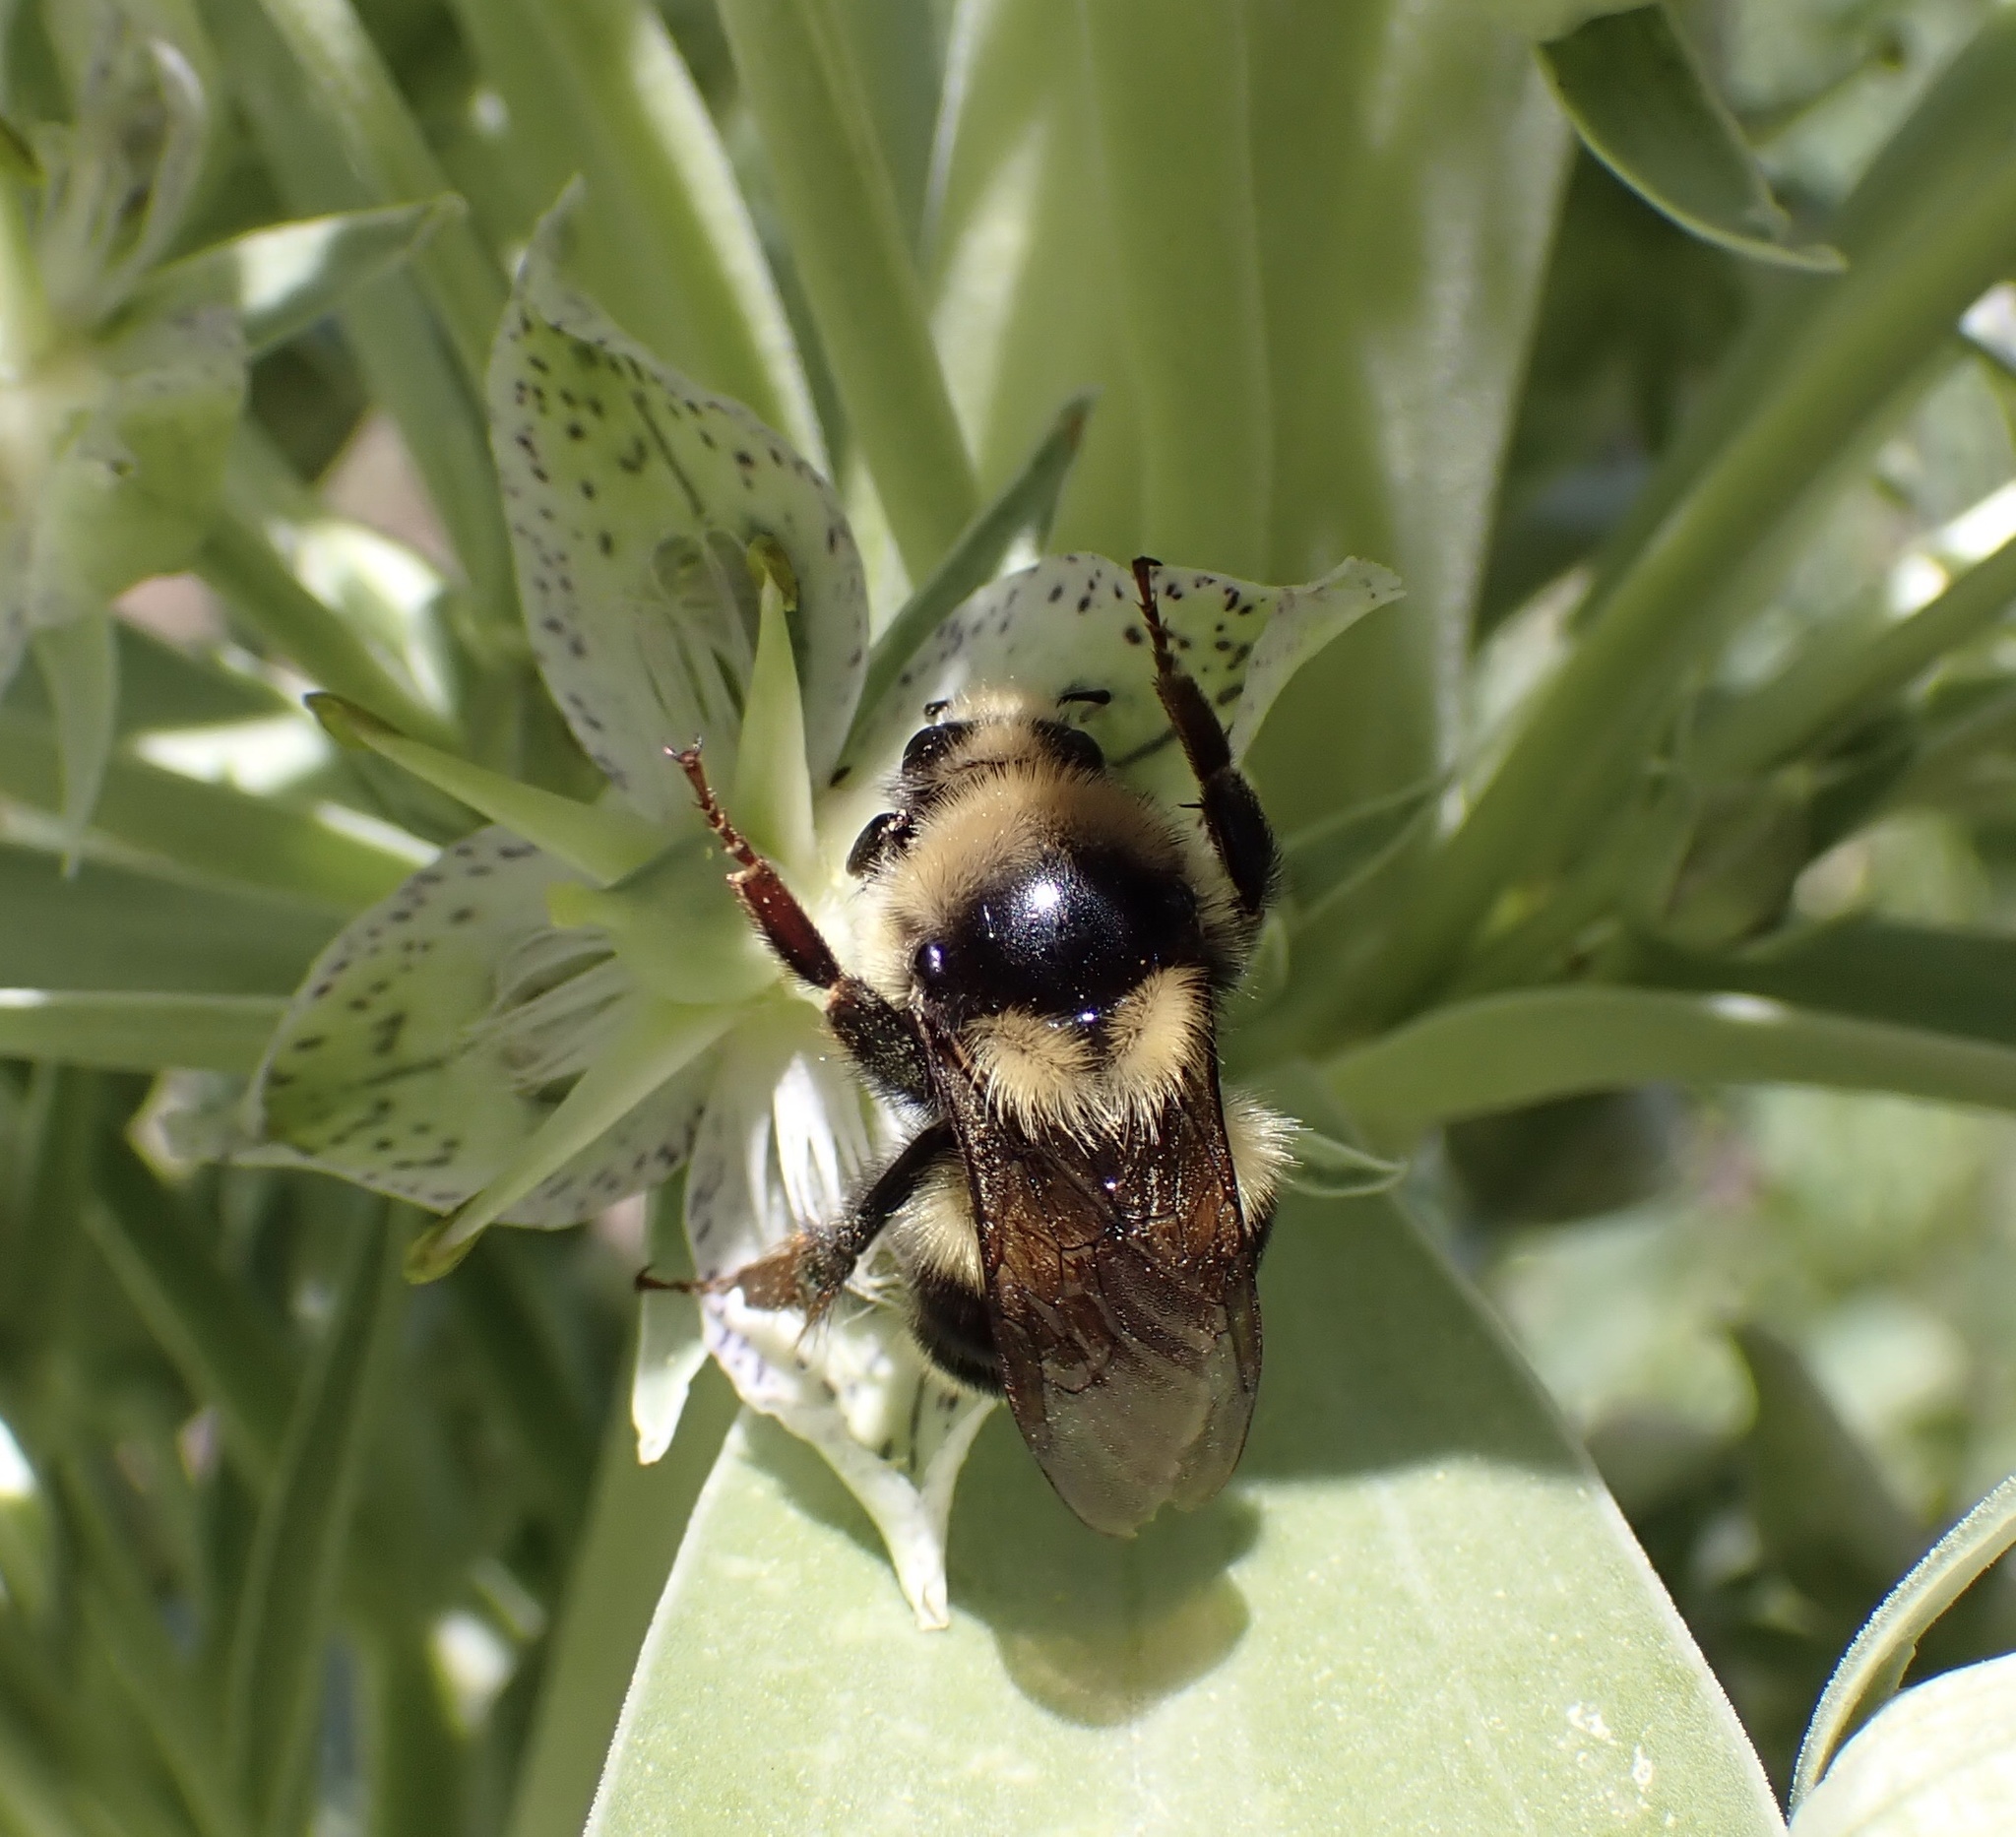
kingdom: Animalia
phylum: Arthropoda
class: Insecta
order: Hymenoptera
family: Apidae
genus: Bombus
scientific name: Bombus vancouverensis
